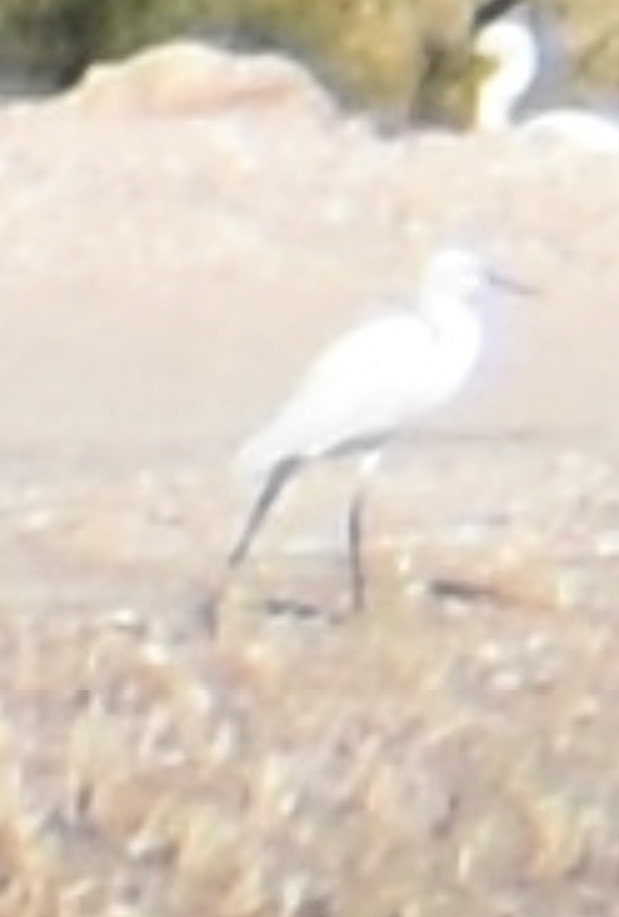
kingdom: Animalia
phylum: Chordata
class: Aves
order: Pelecaniformes
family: Ardeidae
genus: Egretta
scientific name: Egretta garzetta
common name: Little egret
